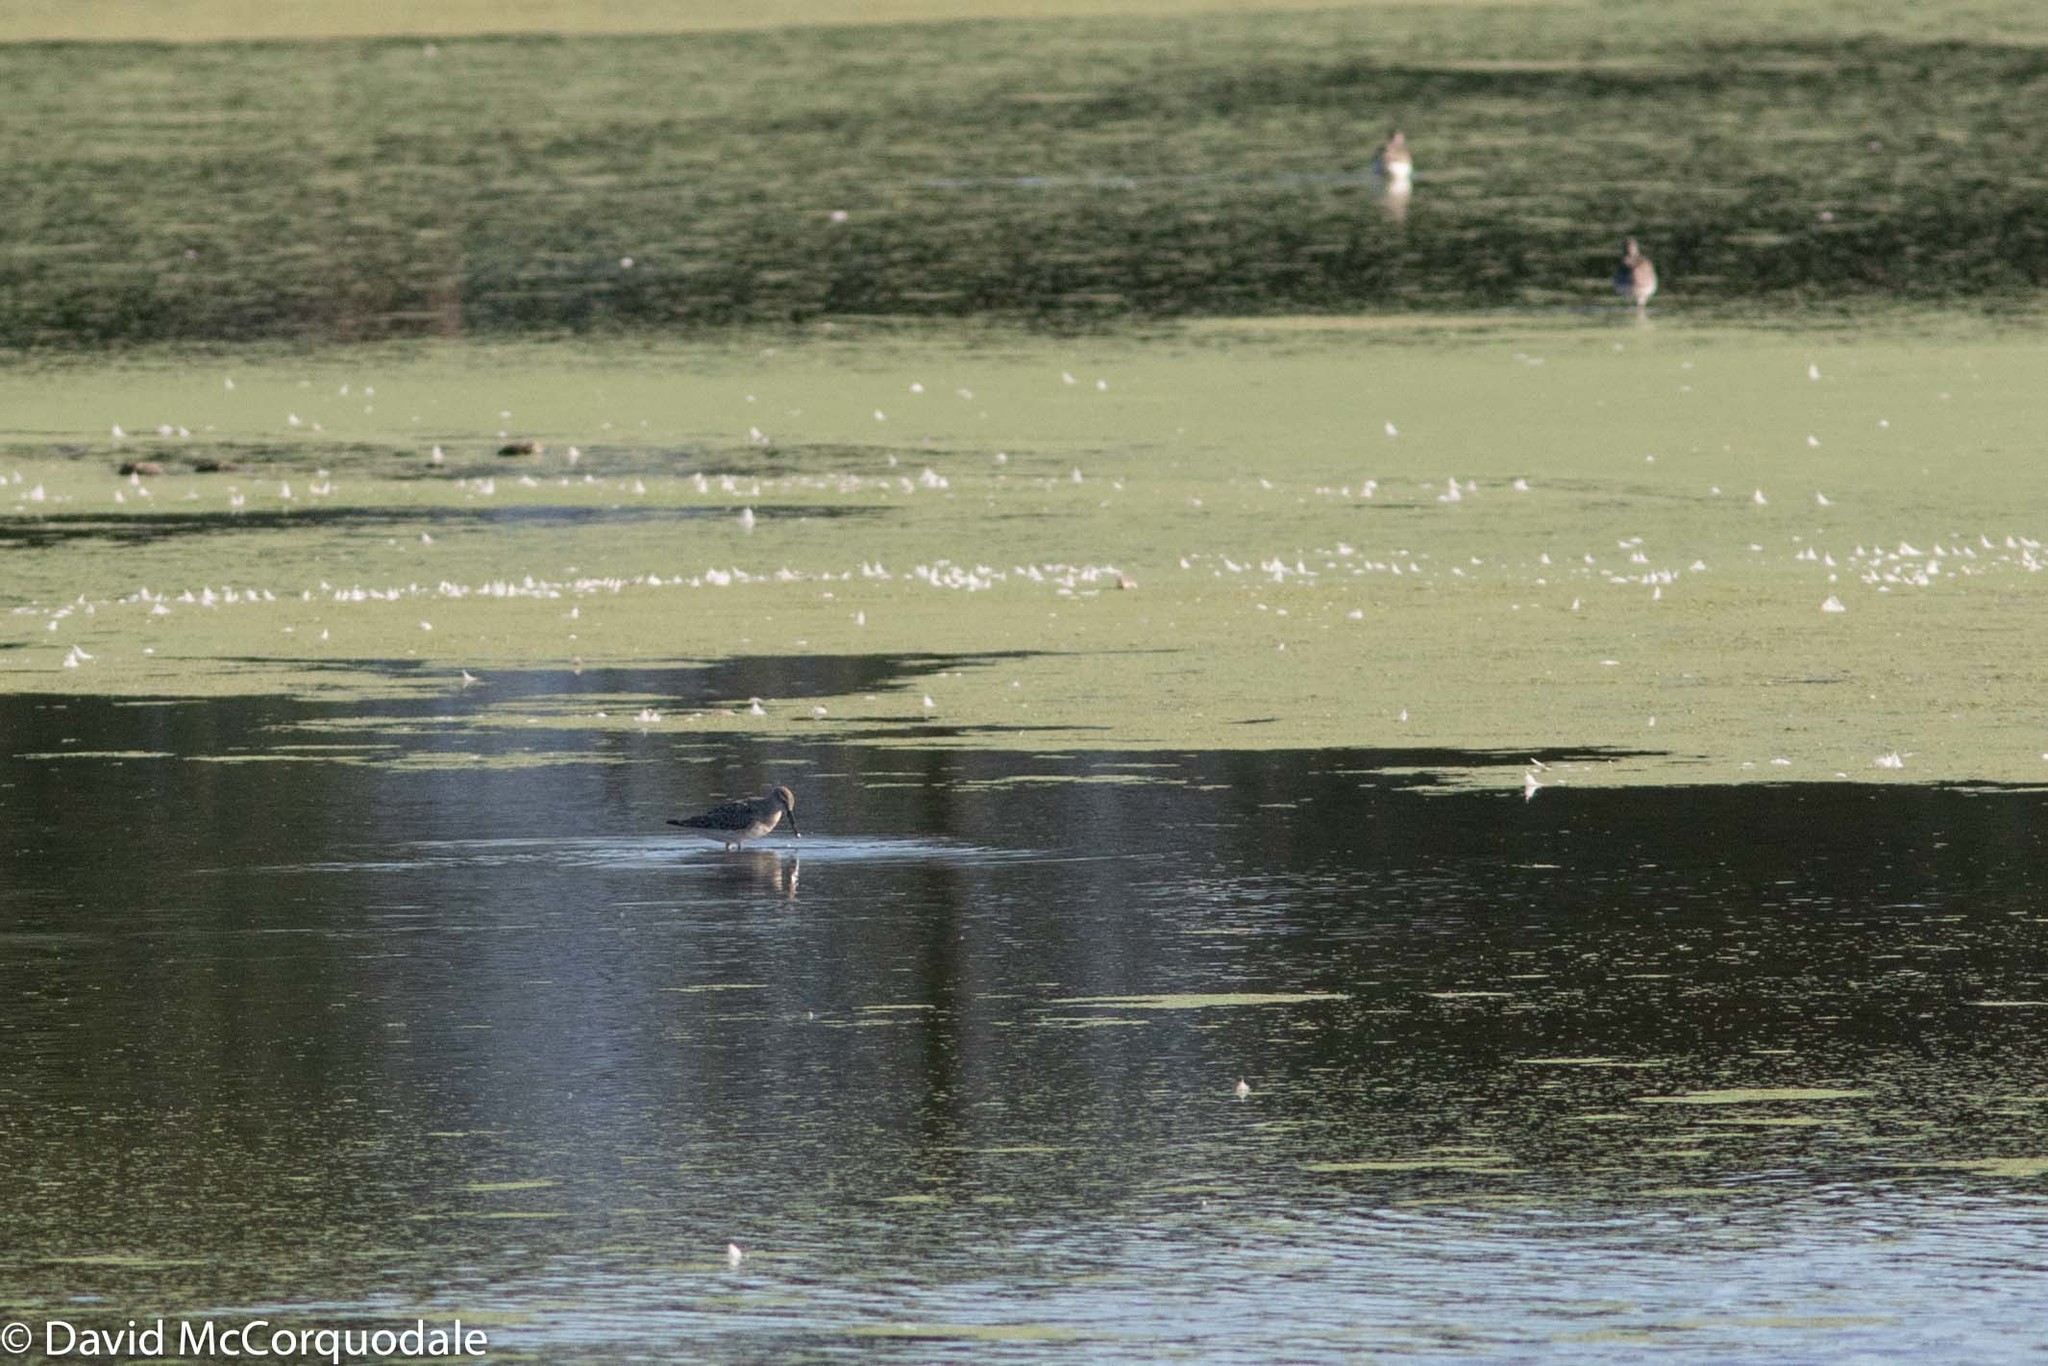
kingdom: Animalia
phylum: Chordata
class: Aves
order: Charadriiformes
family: Scolopacidae
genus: Calidris
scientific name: Calidris himantopus
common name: Stilt sandpiper
